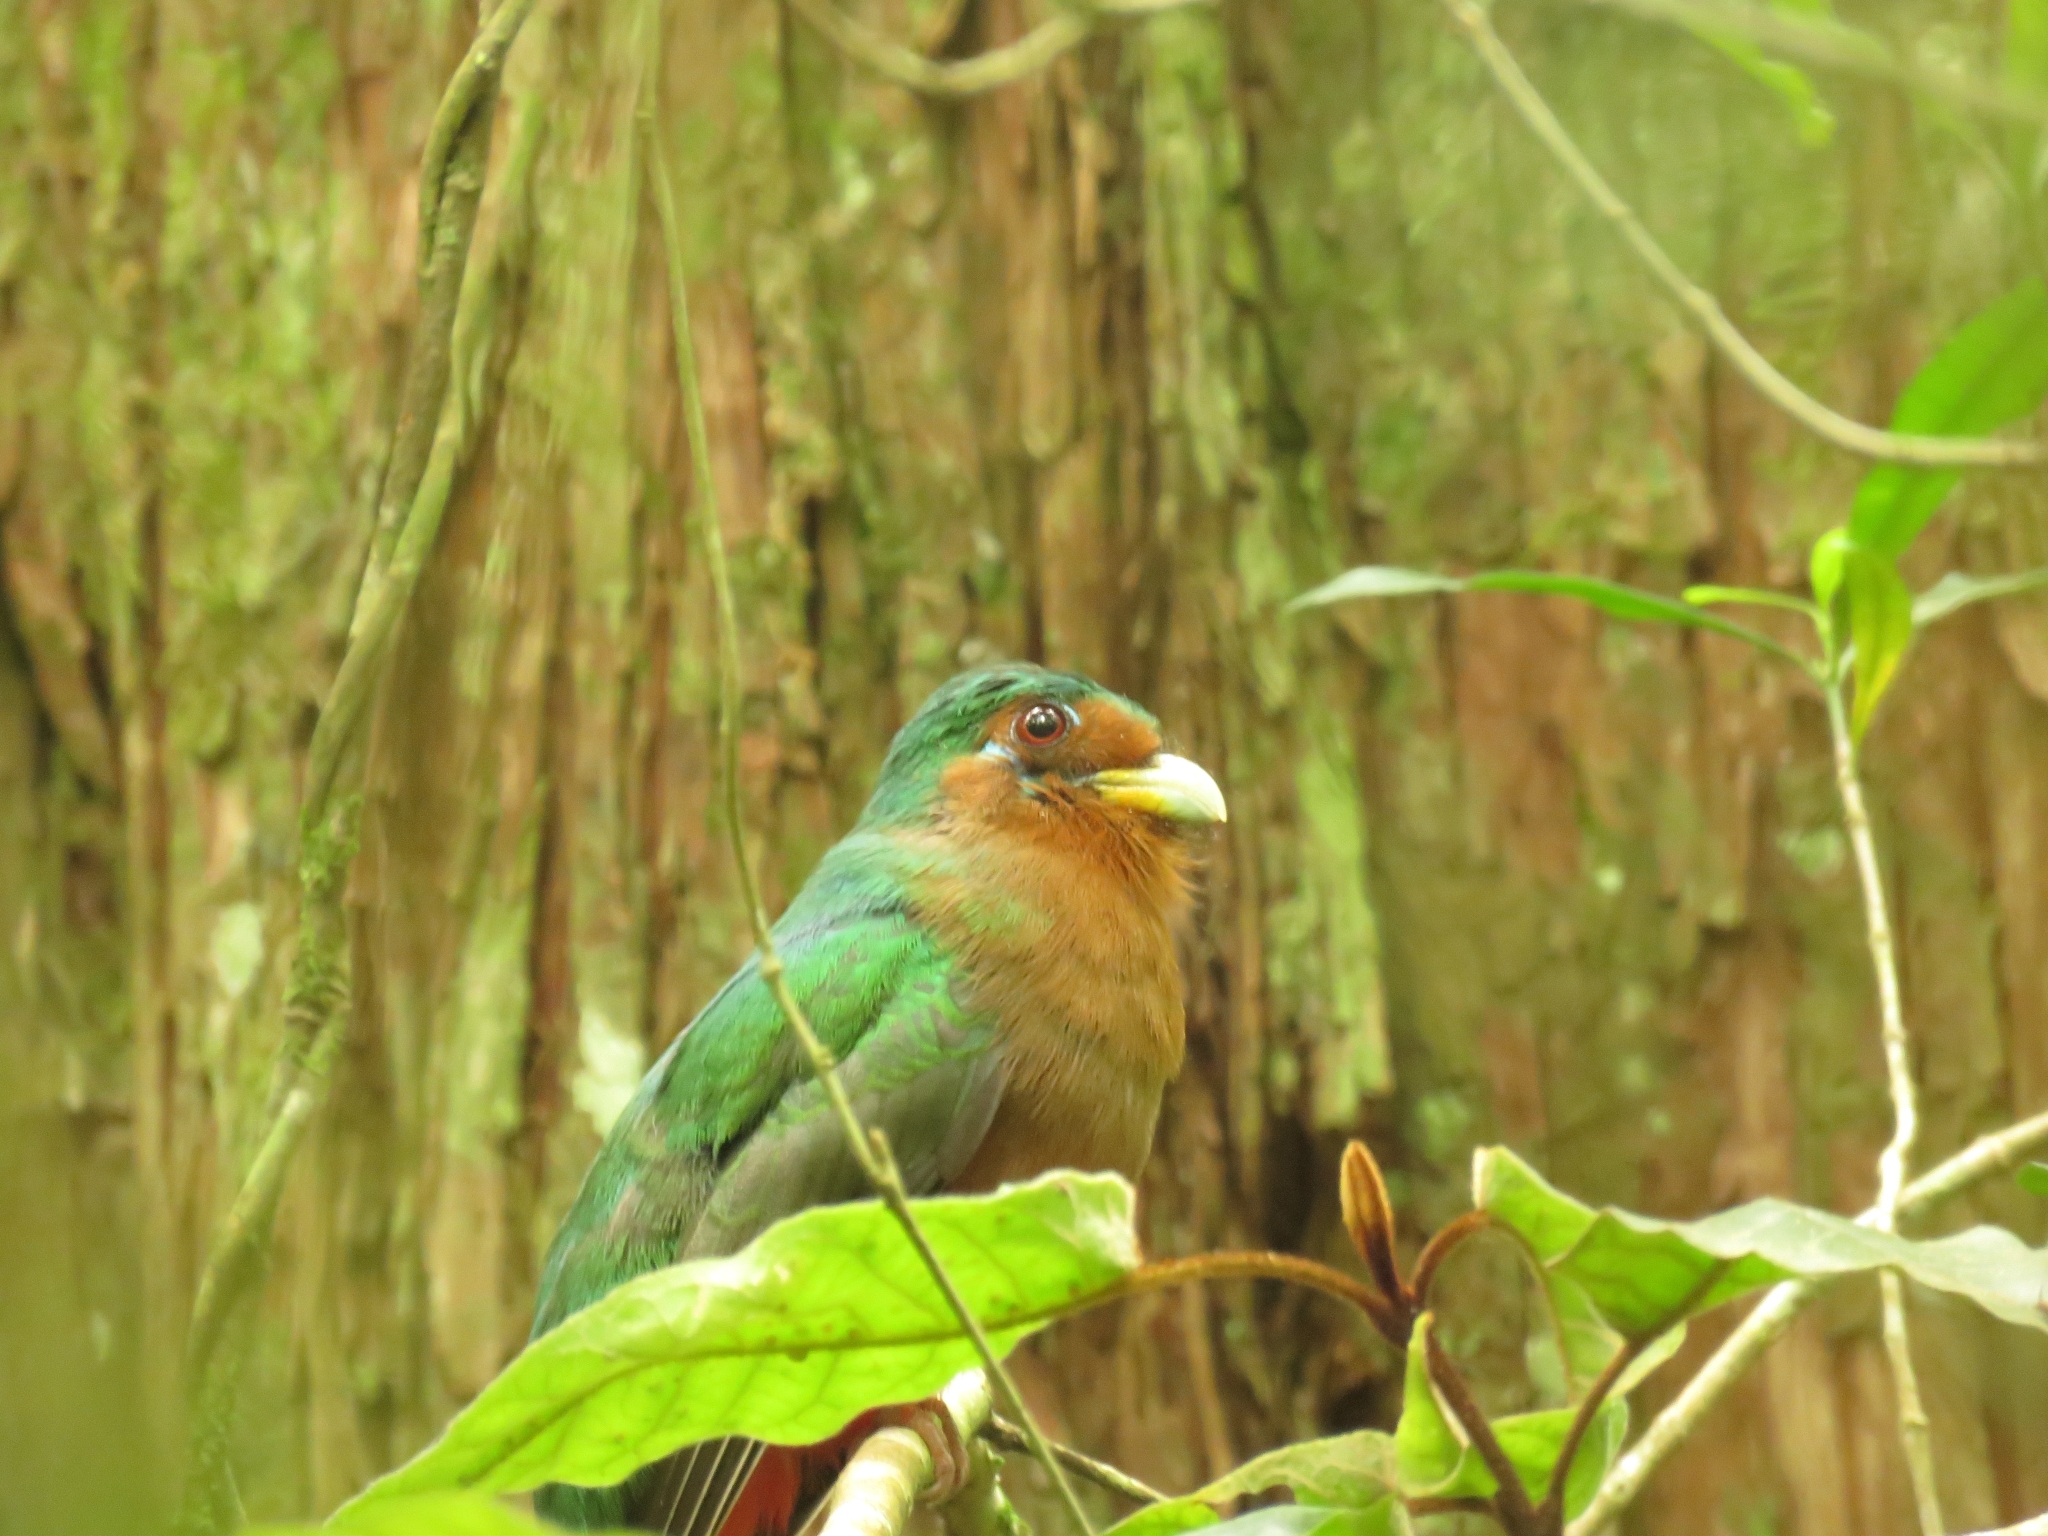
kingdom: Animalia
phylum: Chordata
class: Aves
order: Trogoniformes
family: Trogonidae
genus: Apaloderma
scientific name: Apaloderma narina
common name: Narina trogon
